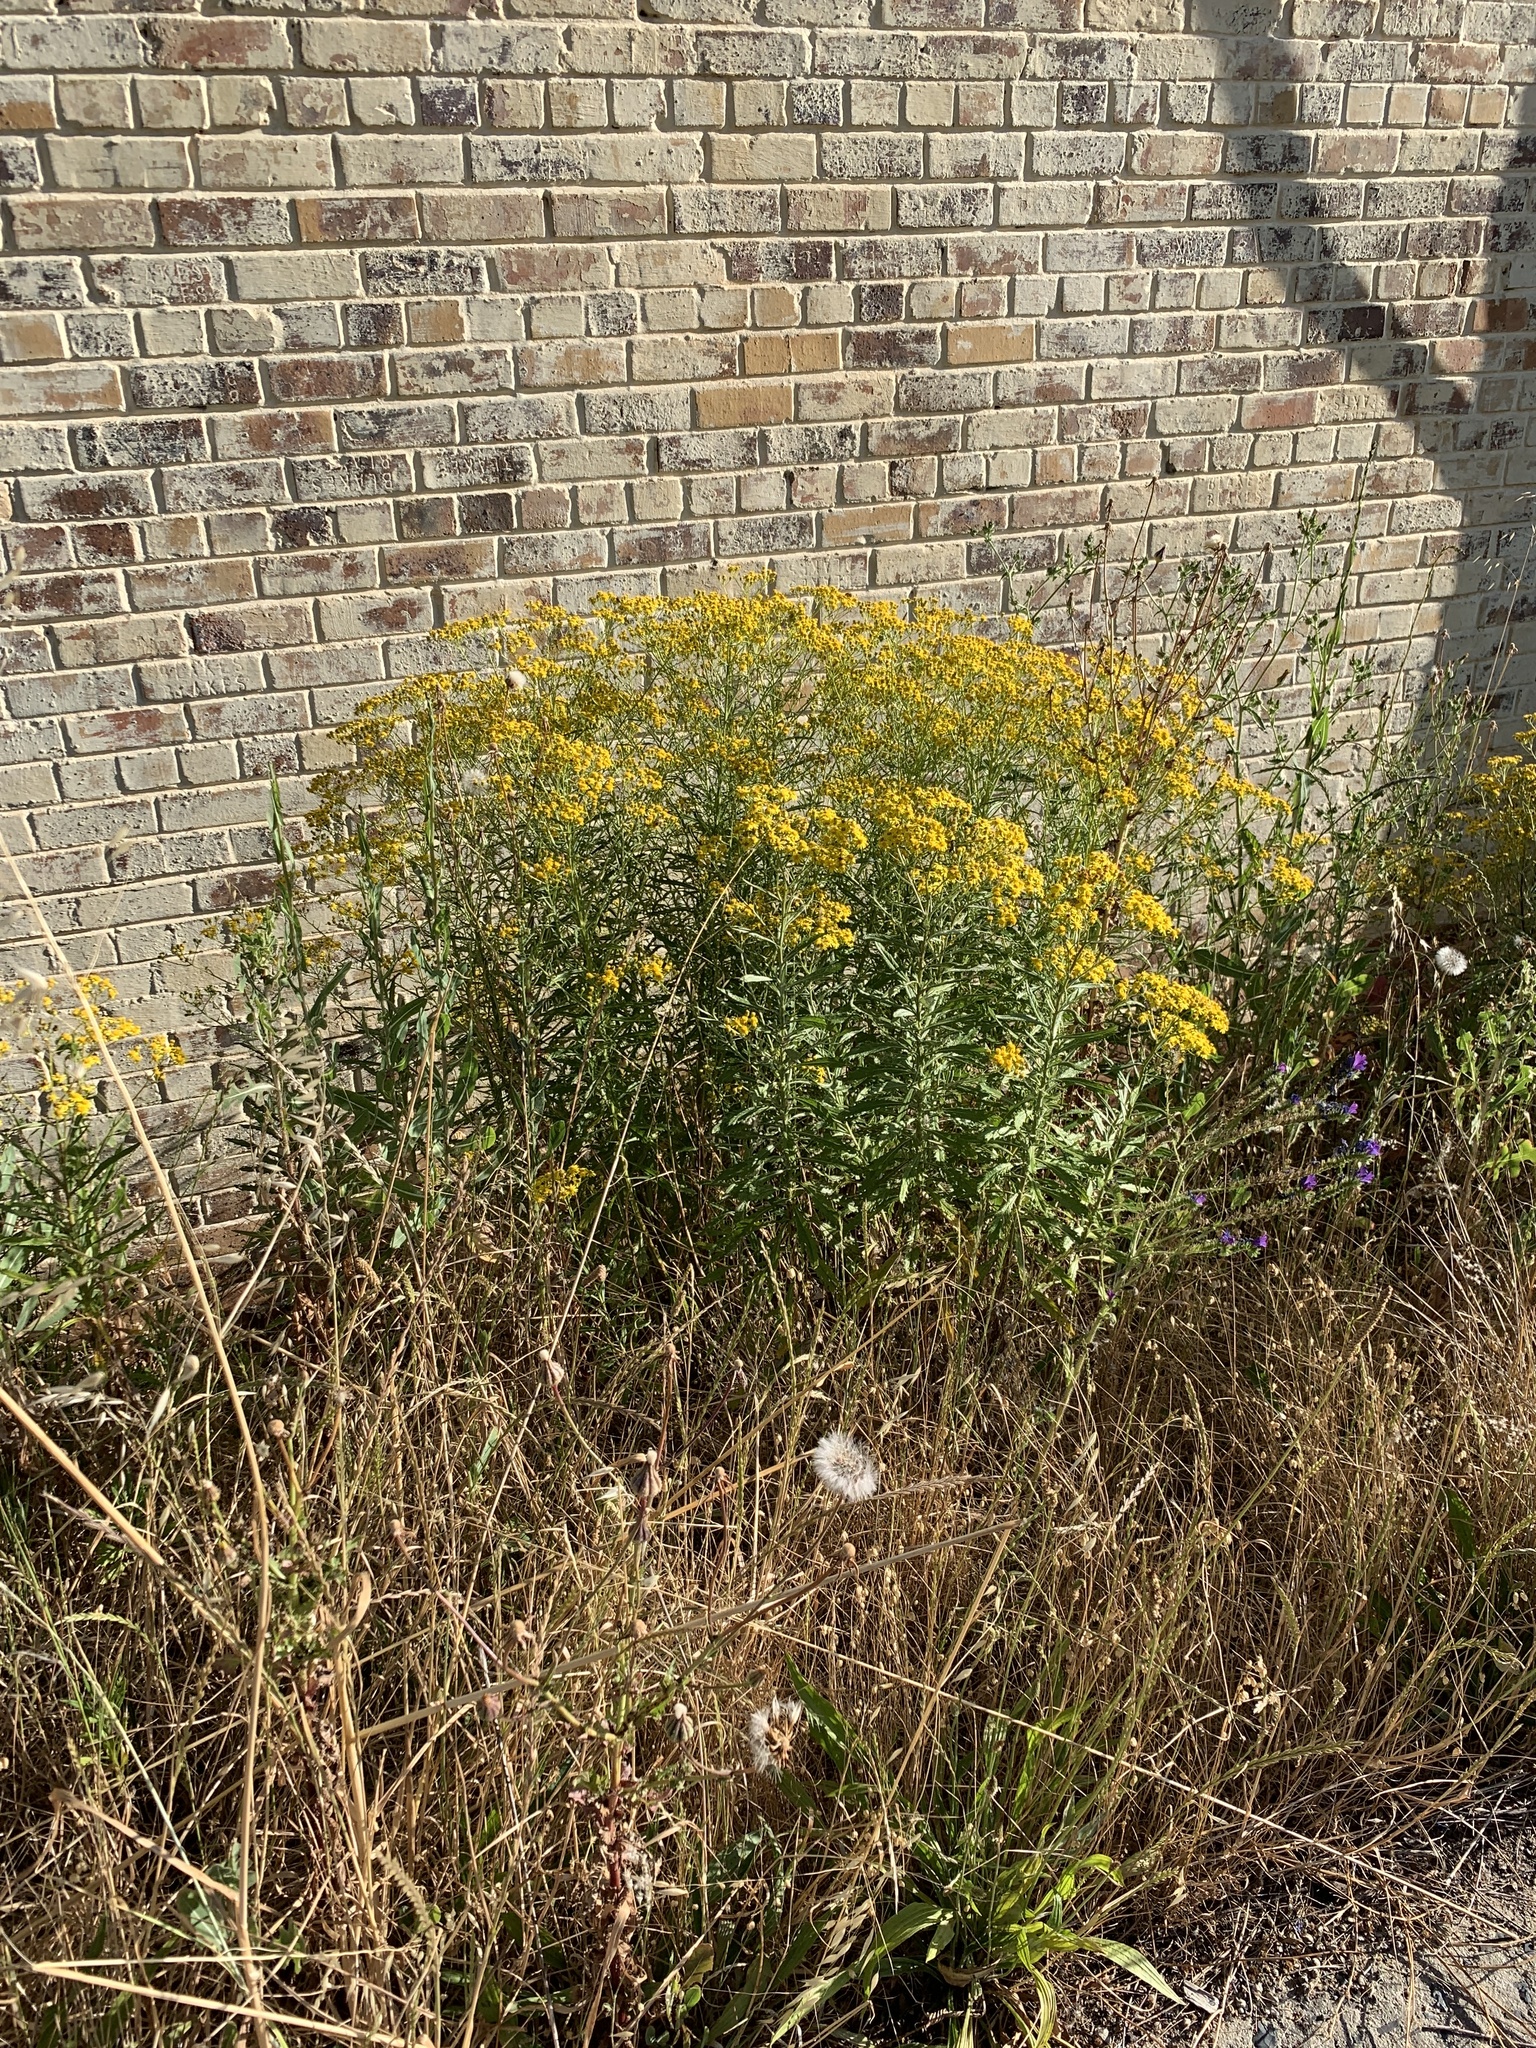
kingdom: Plantae
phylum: Tracheophyta
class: Magnoliopsida
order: Asterales
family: Asteraceae
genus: Senecio
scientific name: Senecio pterophorus
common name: Shoddy ragwort
